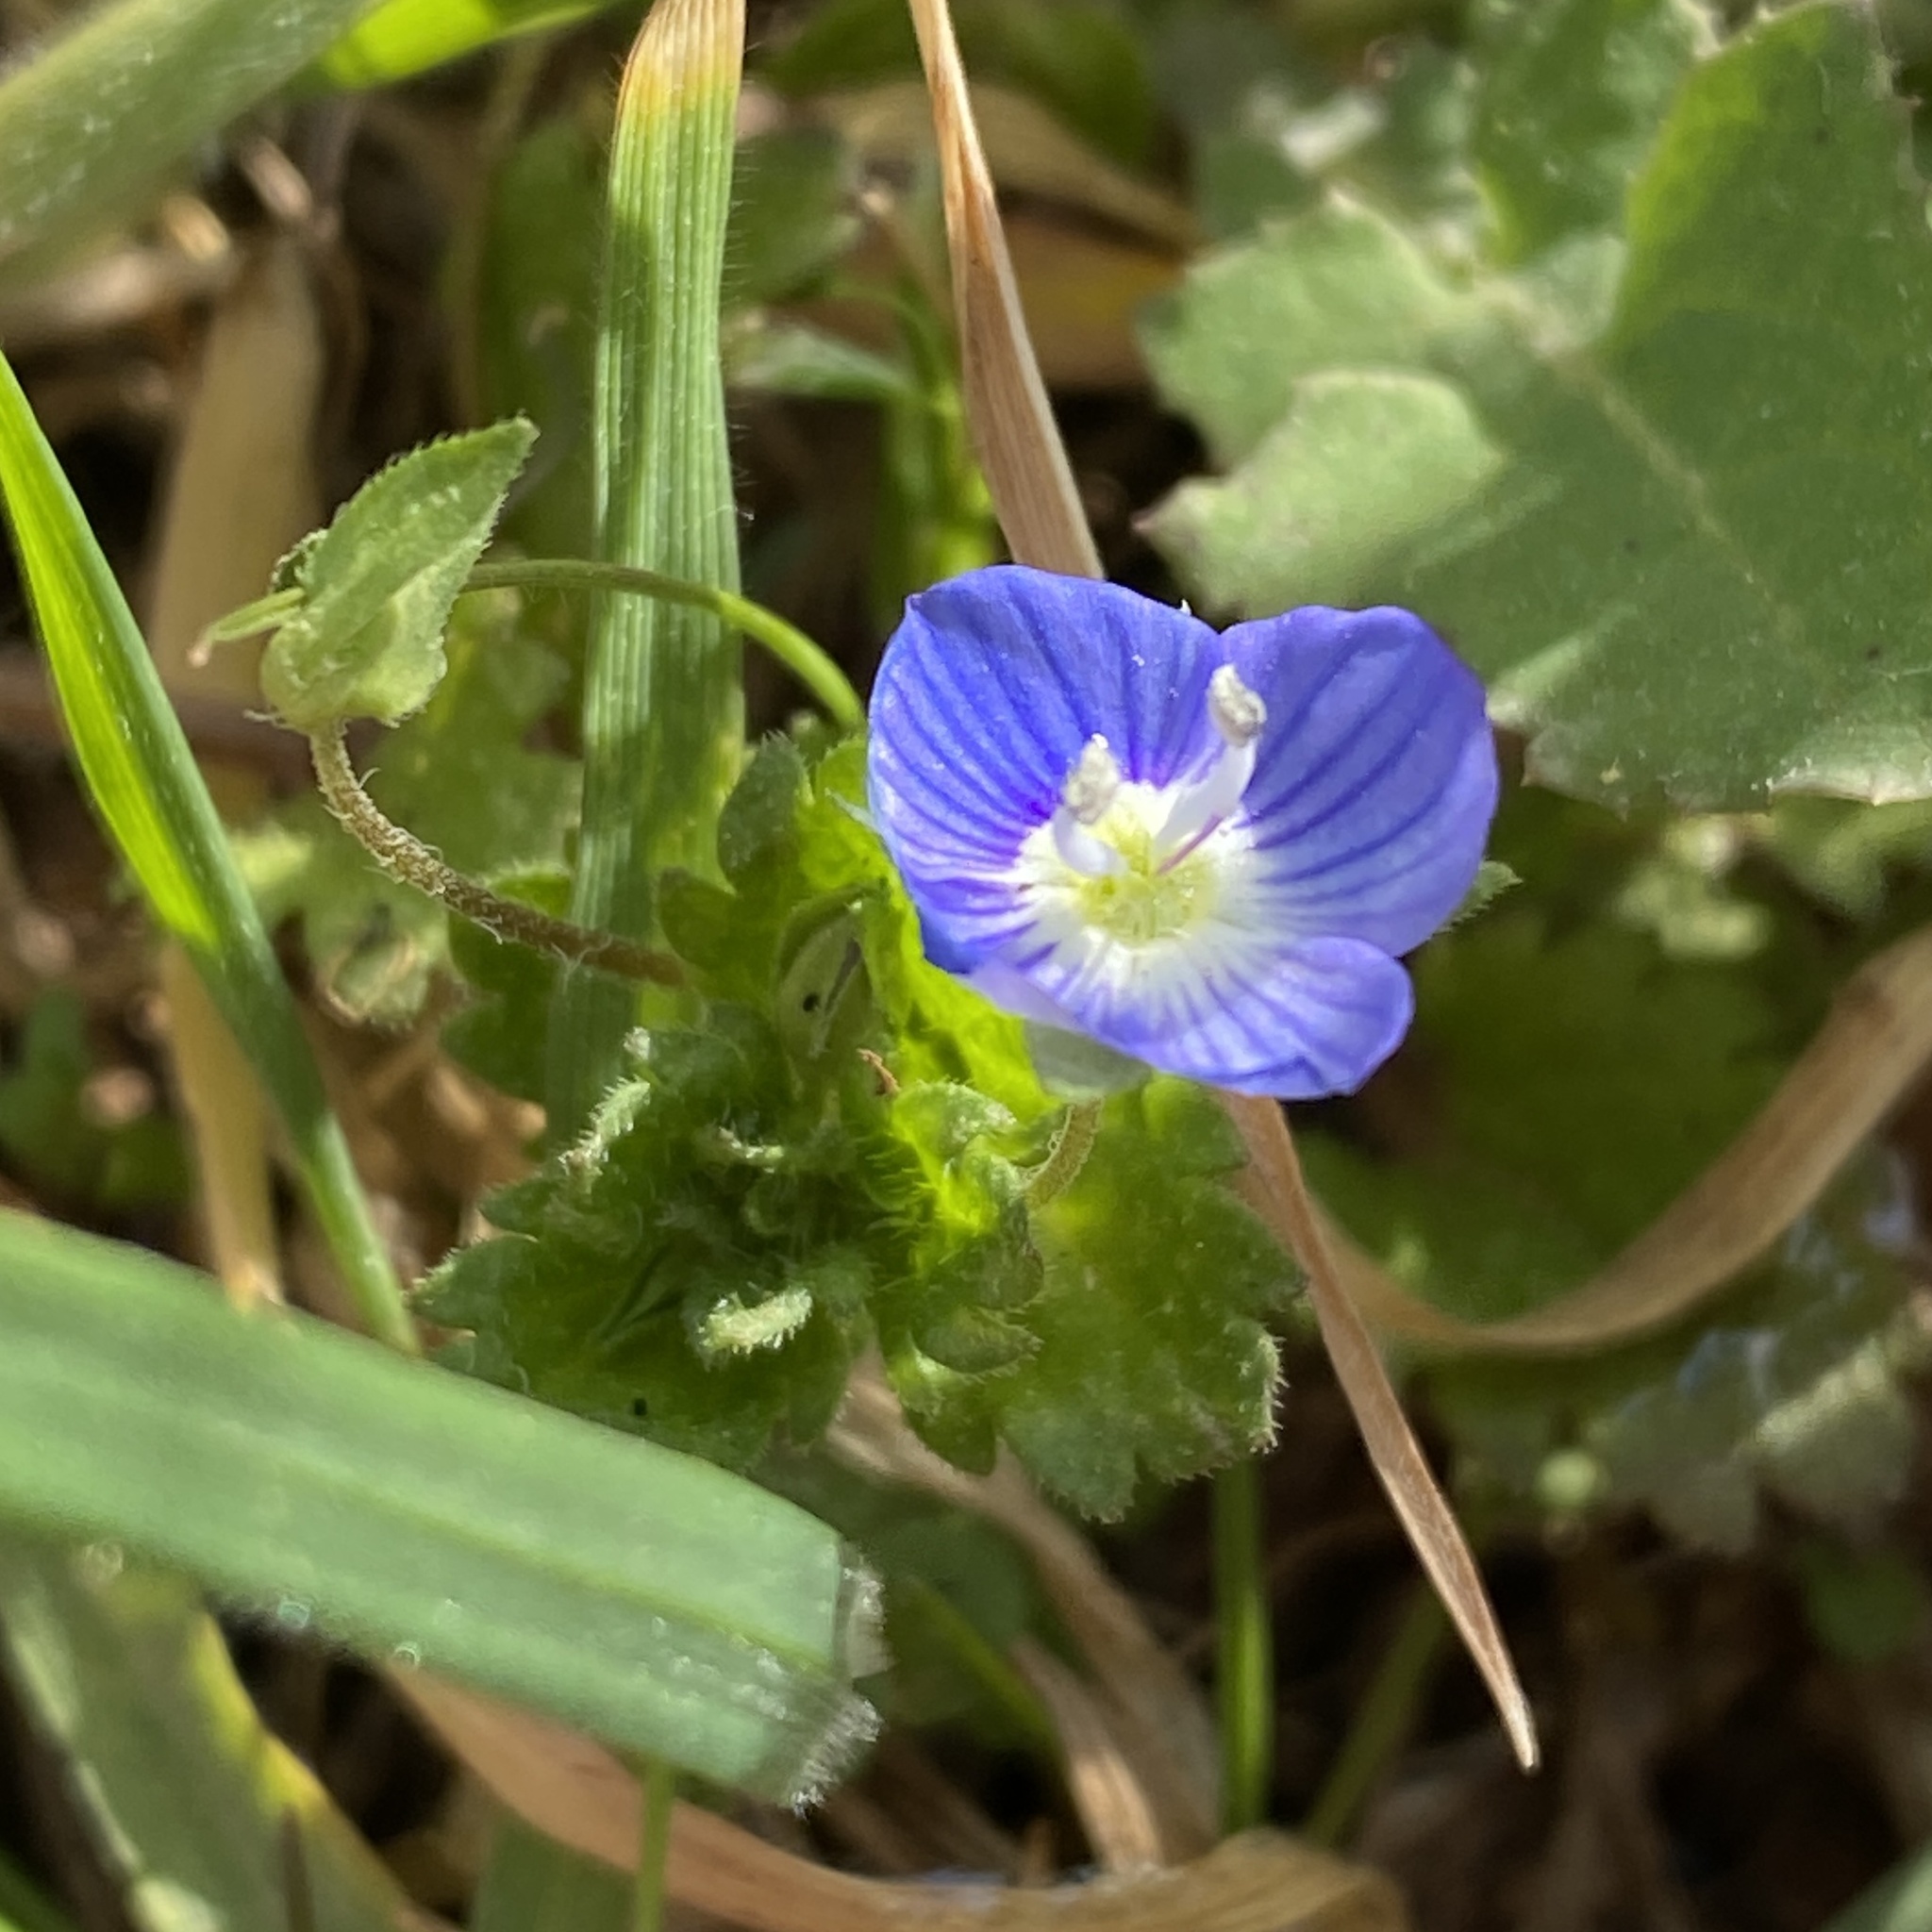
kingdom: Plantae
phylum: Tracheophyta
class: Magnoliopsida
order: Lamiales
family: Plantaginaceae
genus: Veronica
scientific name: Veronica persica
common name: Common field-speedwell
